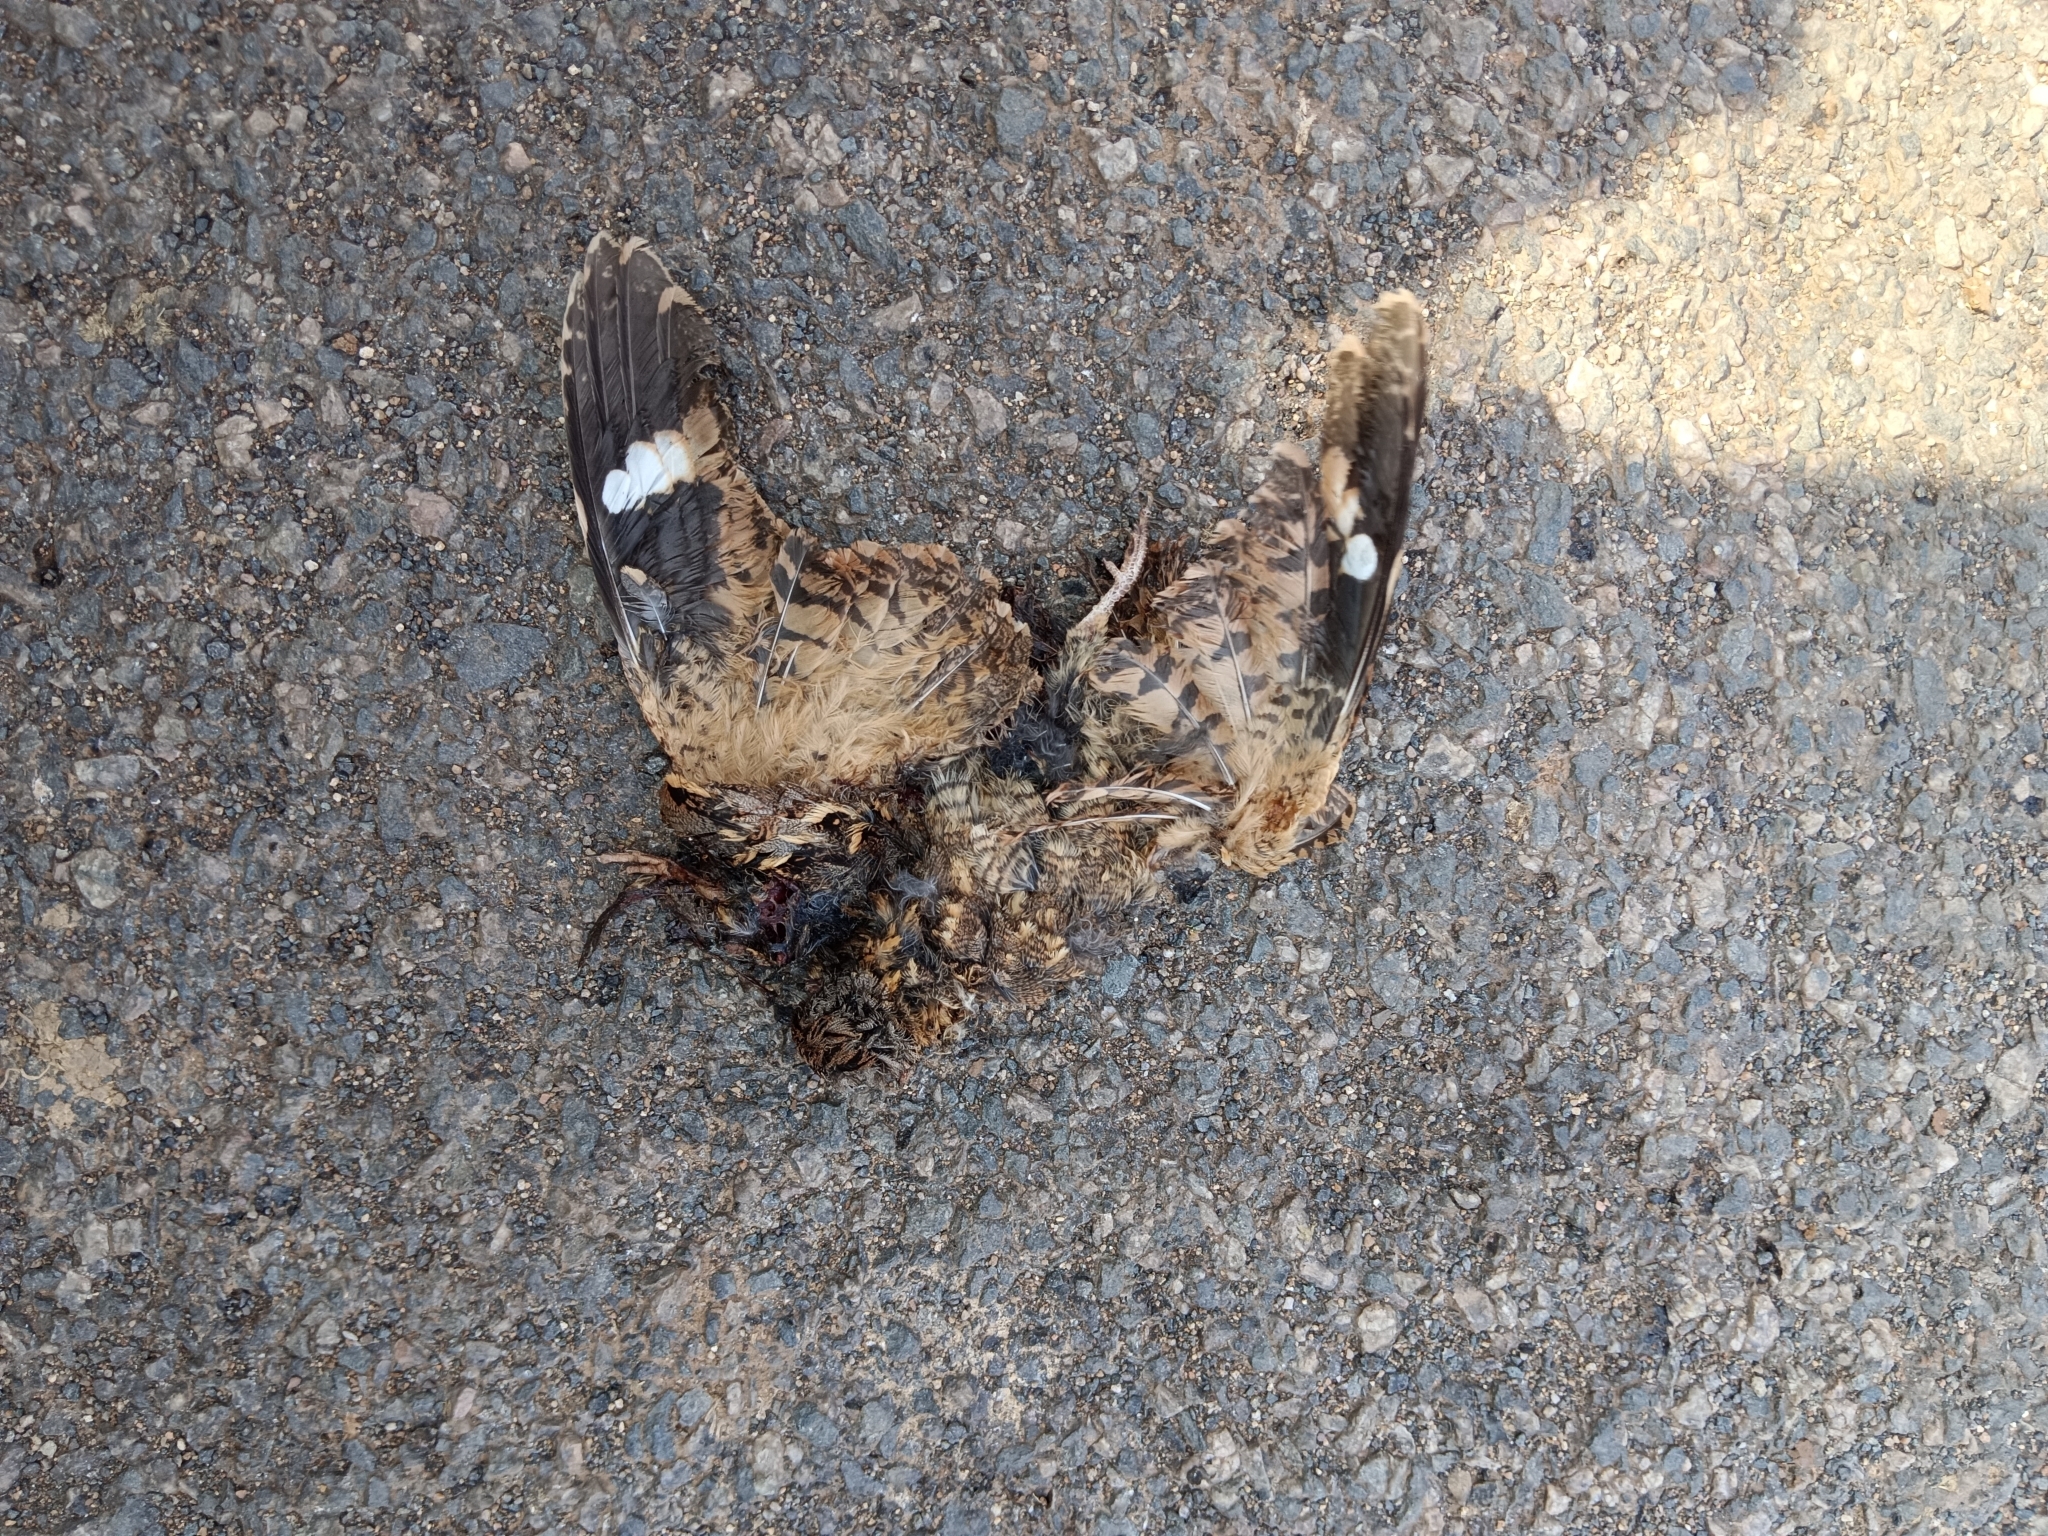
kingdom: Animalia
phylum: Chordata
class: Aves
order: Caprimulgiformes
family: Caprimulgidae
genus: Caprimulgus
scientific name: Caprimulgus asiaticus
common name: Indian nightjar
